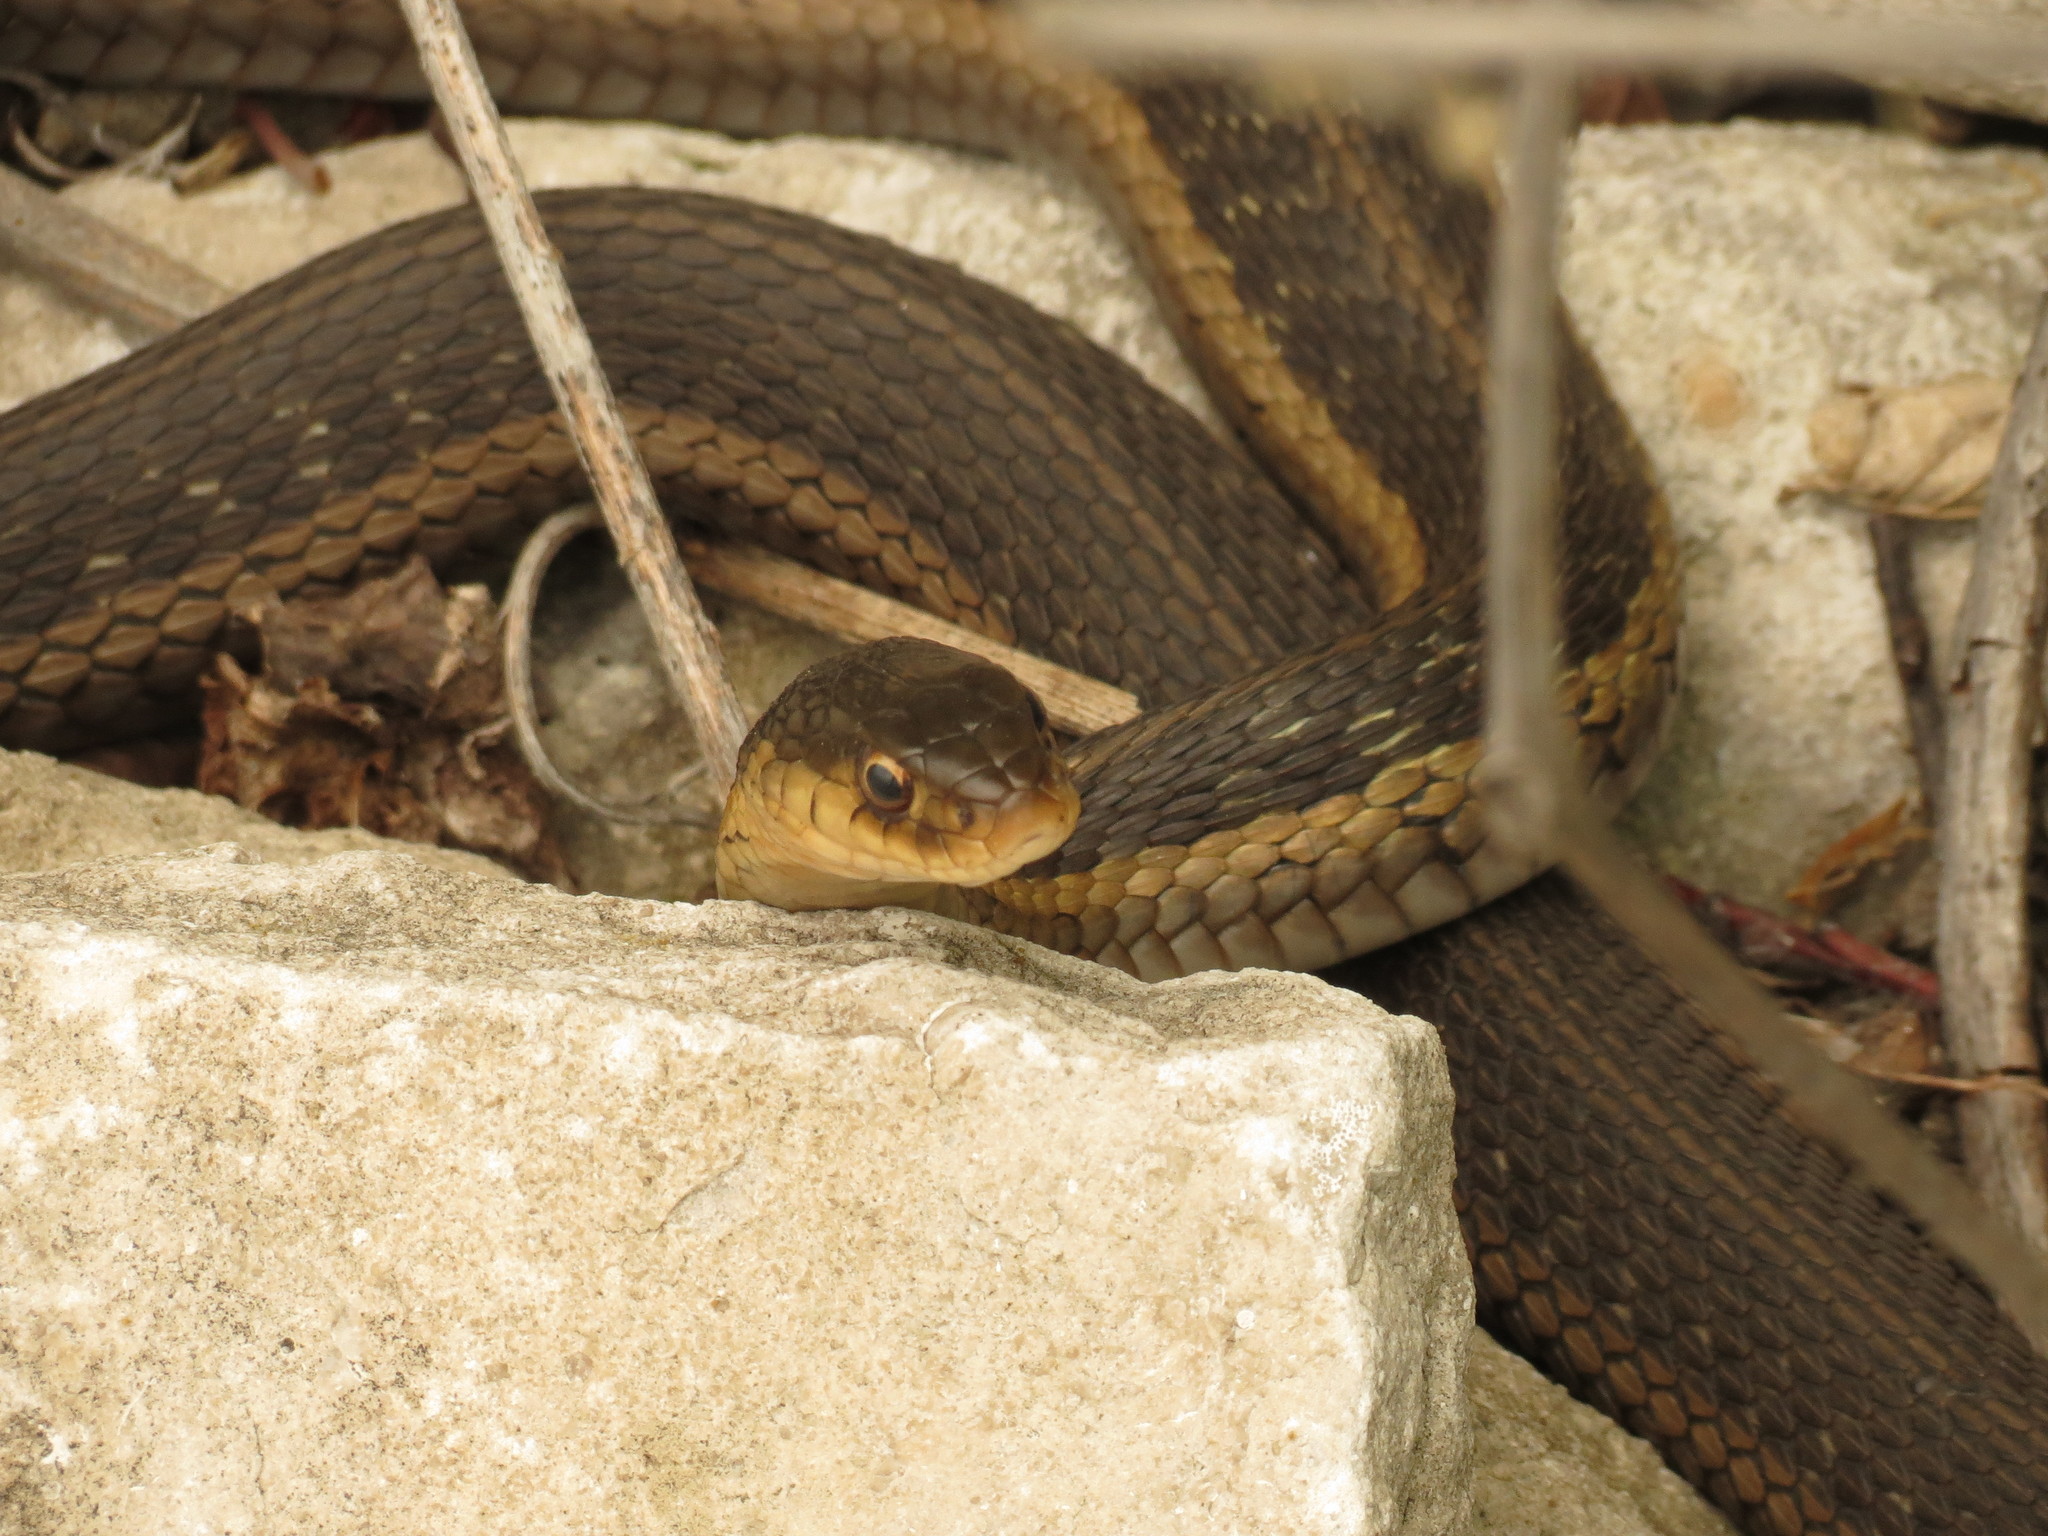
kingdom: Animalia
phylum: Chordata
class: Squamata
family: Colubridae
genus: Thamnophis
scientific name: Thamnophis sirtalis
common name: Common garter snake
